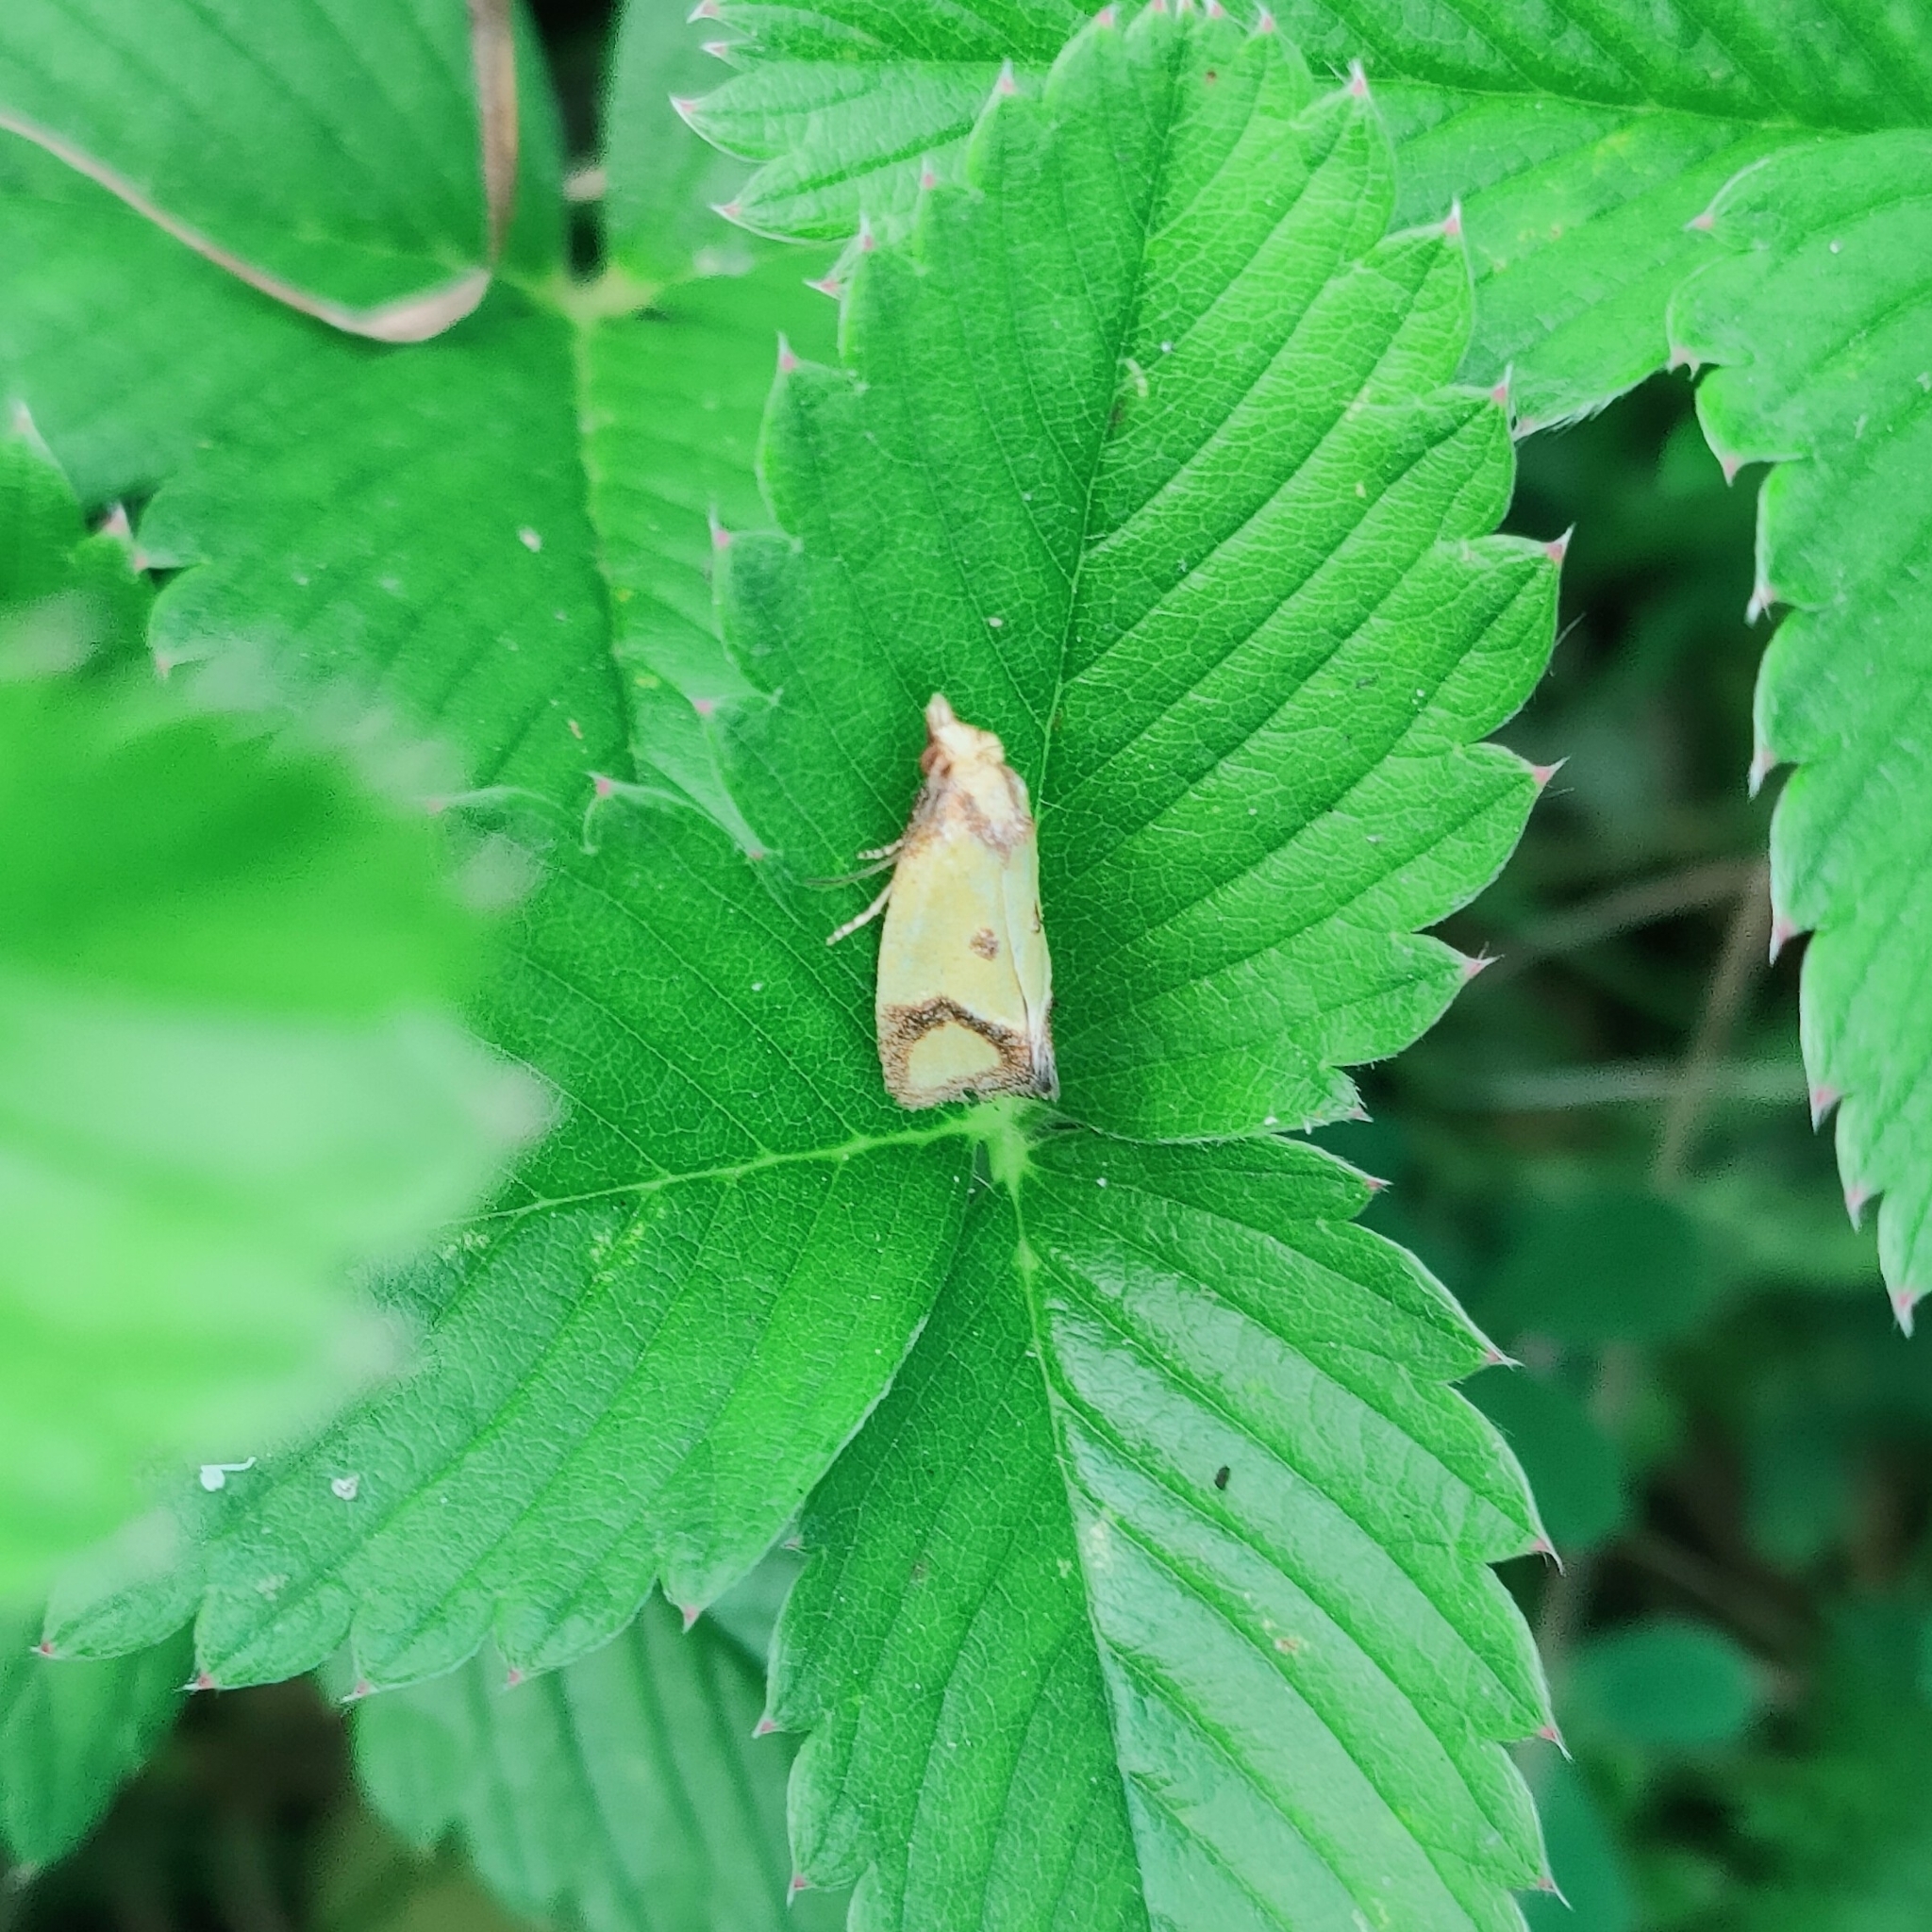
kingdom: Animalia
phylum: Arthropoda
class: Insecta
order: Lepidoptera
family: Tortricidae
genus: Agapeta
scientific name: Agapeta zoegana
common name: Sulfur knapweed root moth
